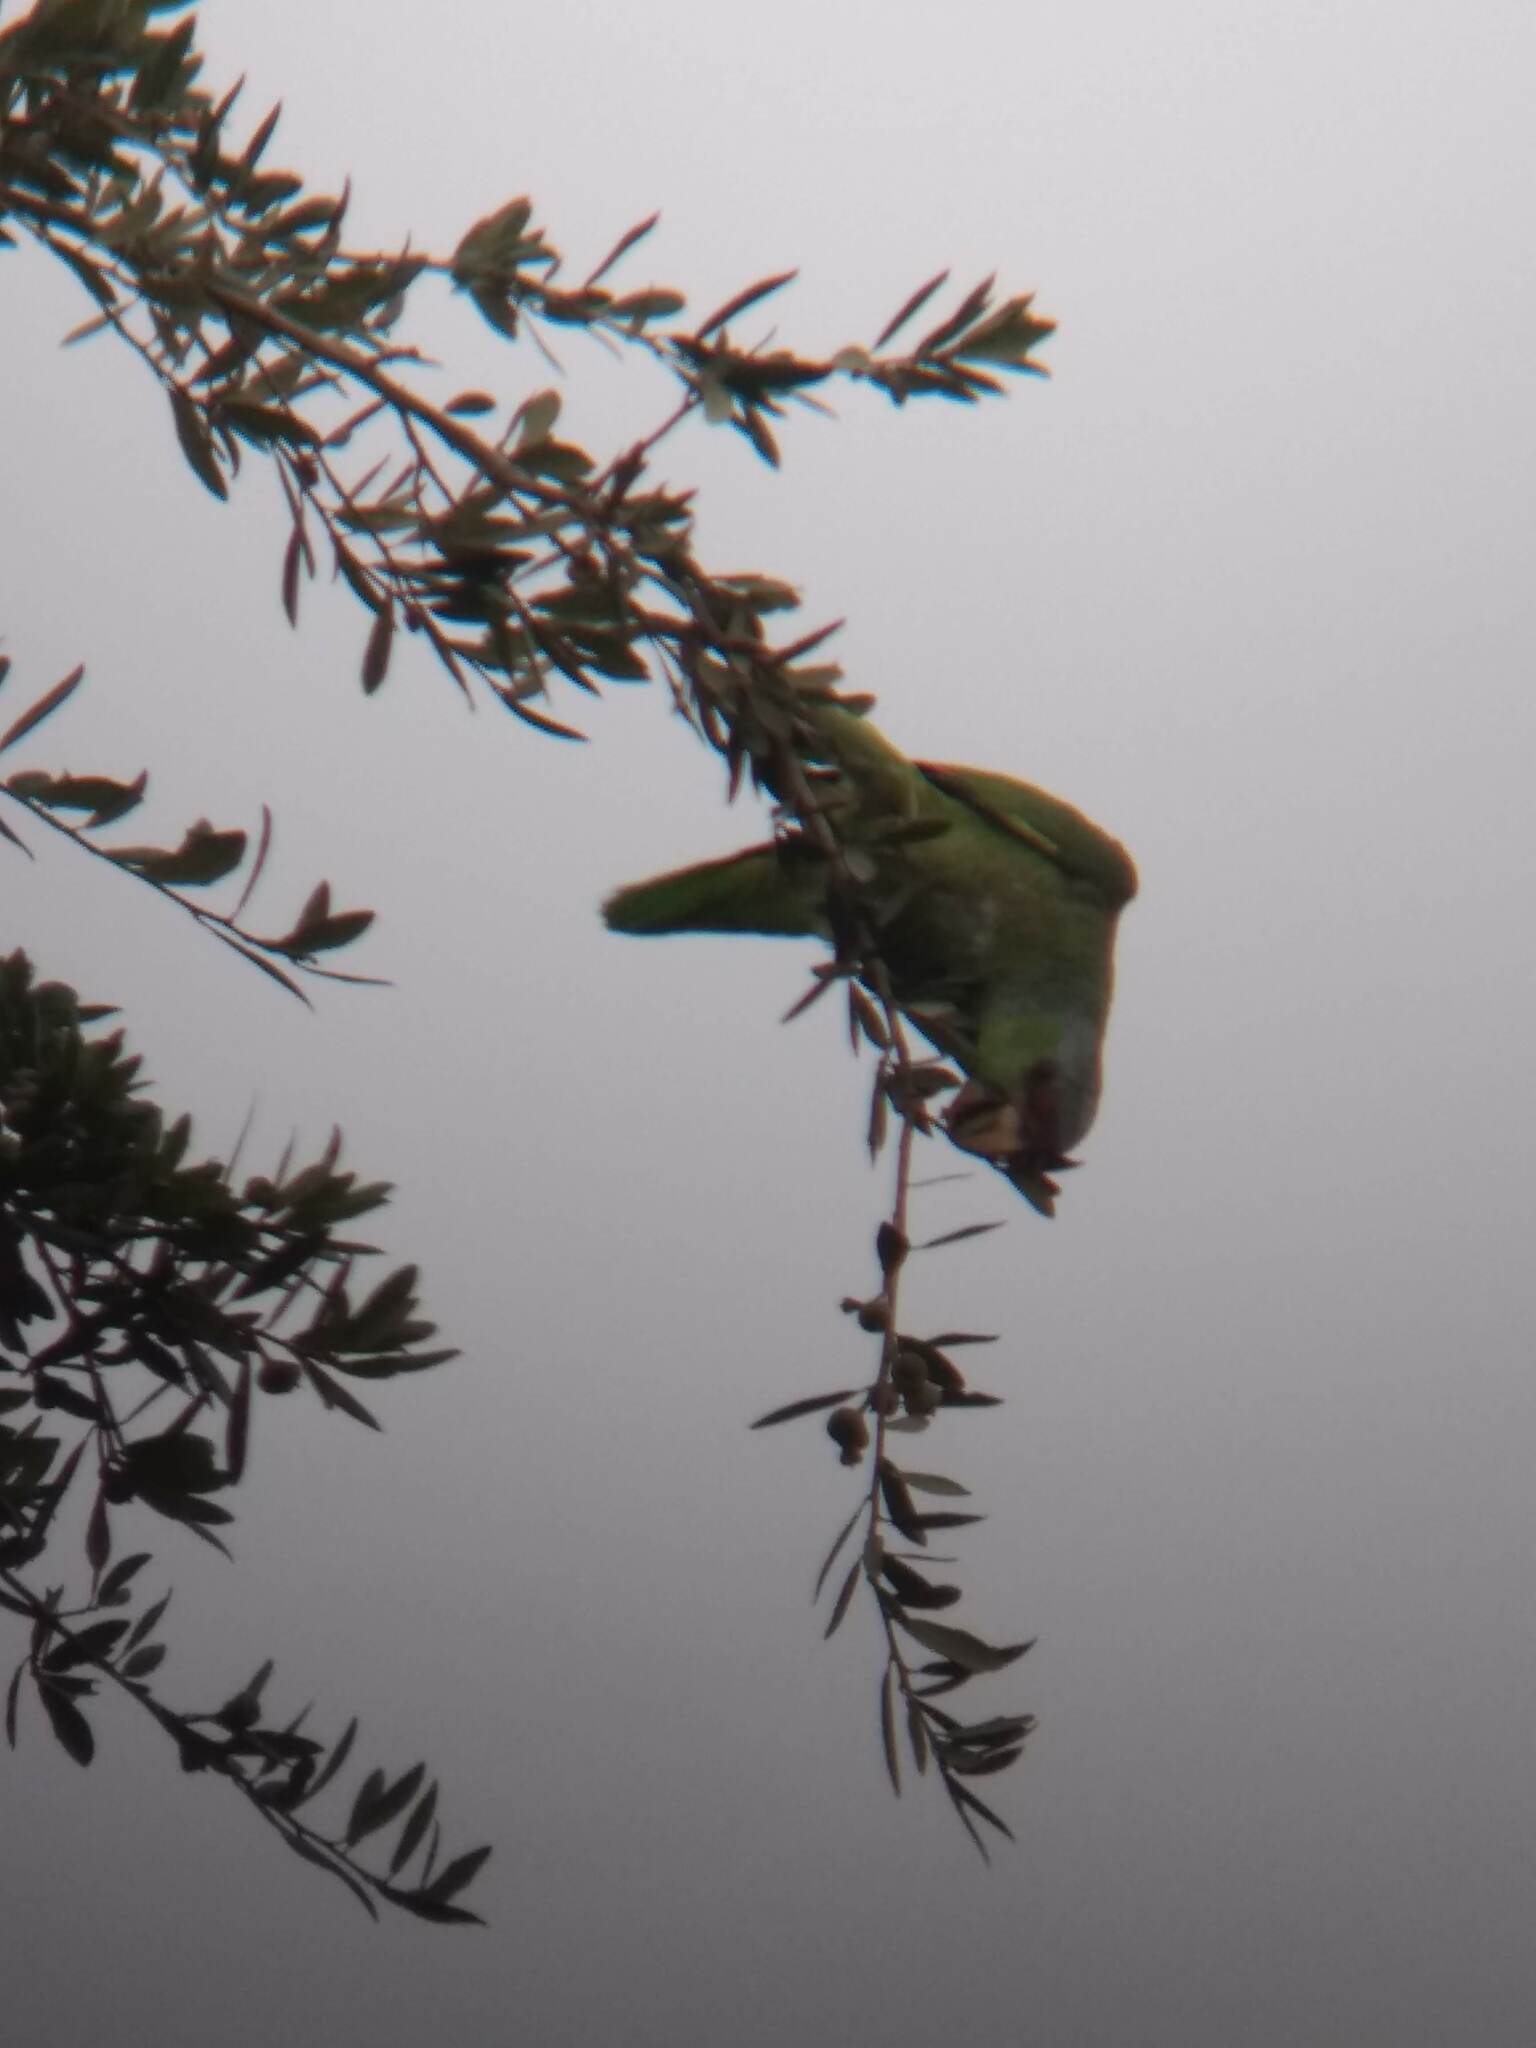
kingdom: Animalia
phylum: Chordata
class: Aves
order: Psittaciformes
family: Psittacidae
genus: Amazona
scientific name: Amazona finschi
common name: Lilac-crowned amazon
